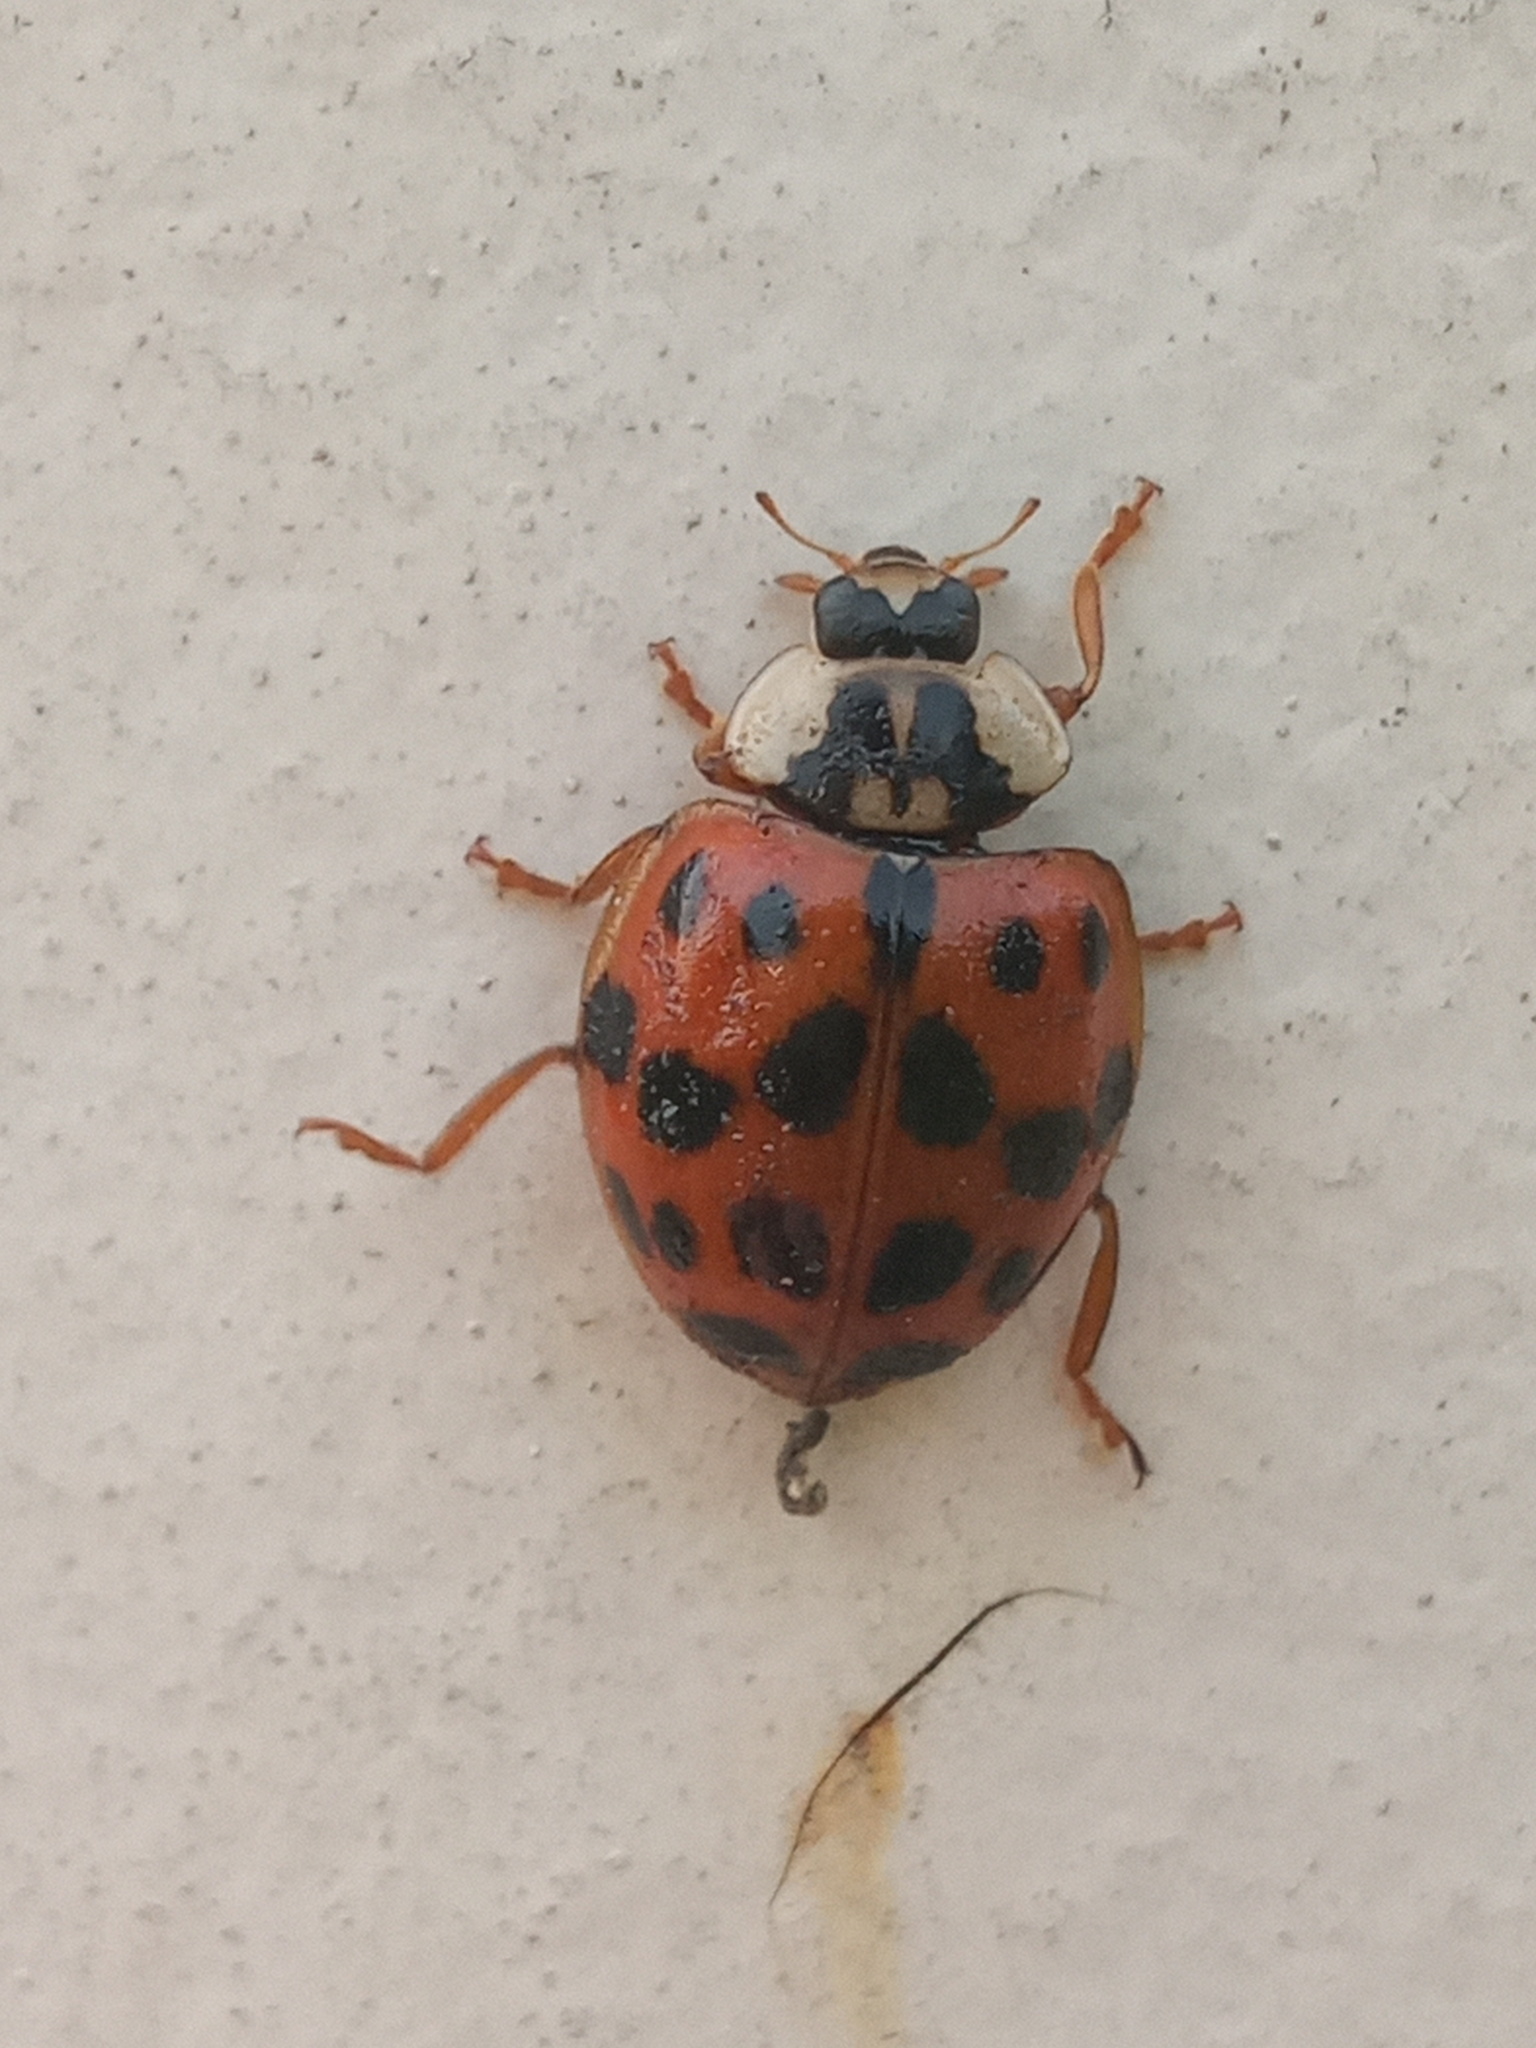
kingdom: Animalia
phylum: Arthropoda
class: Insecta
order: Coleoptera
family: Coccinellidae
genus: Harmonia
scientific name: Harmonia axyridis
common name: Harlequin ladybird
